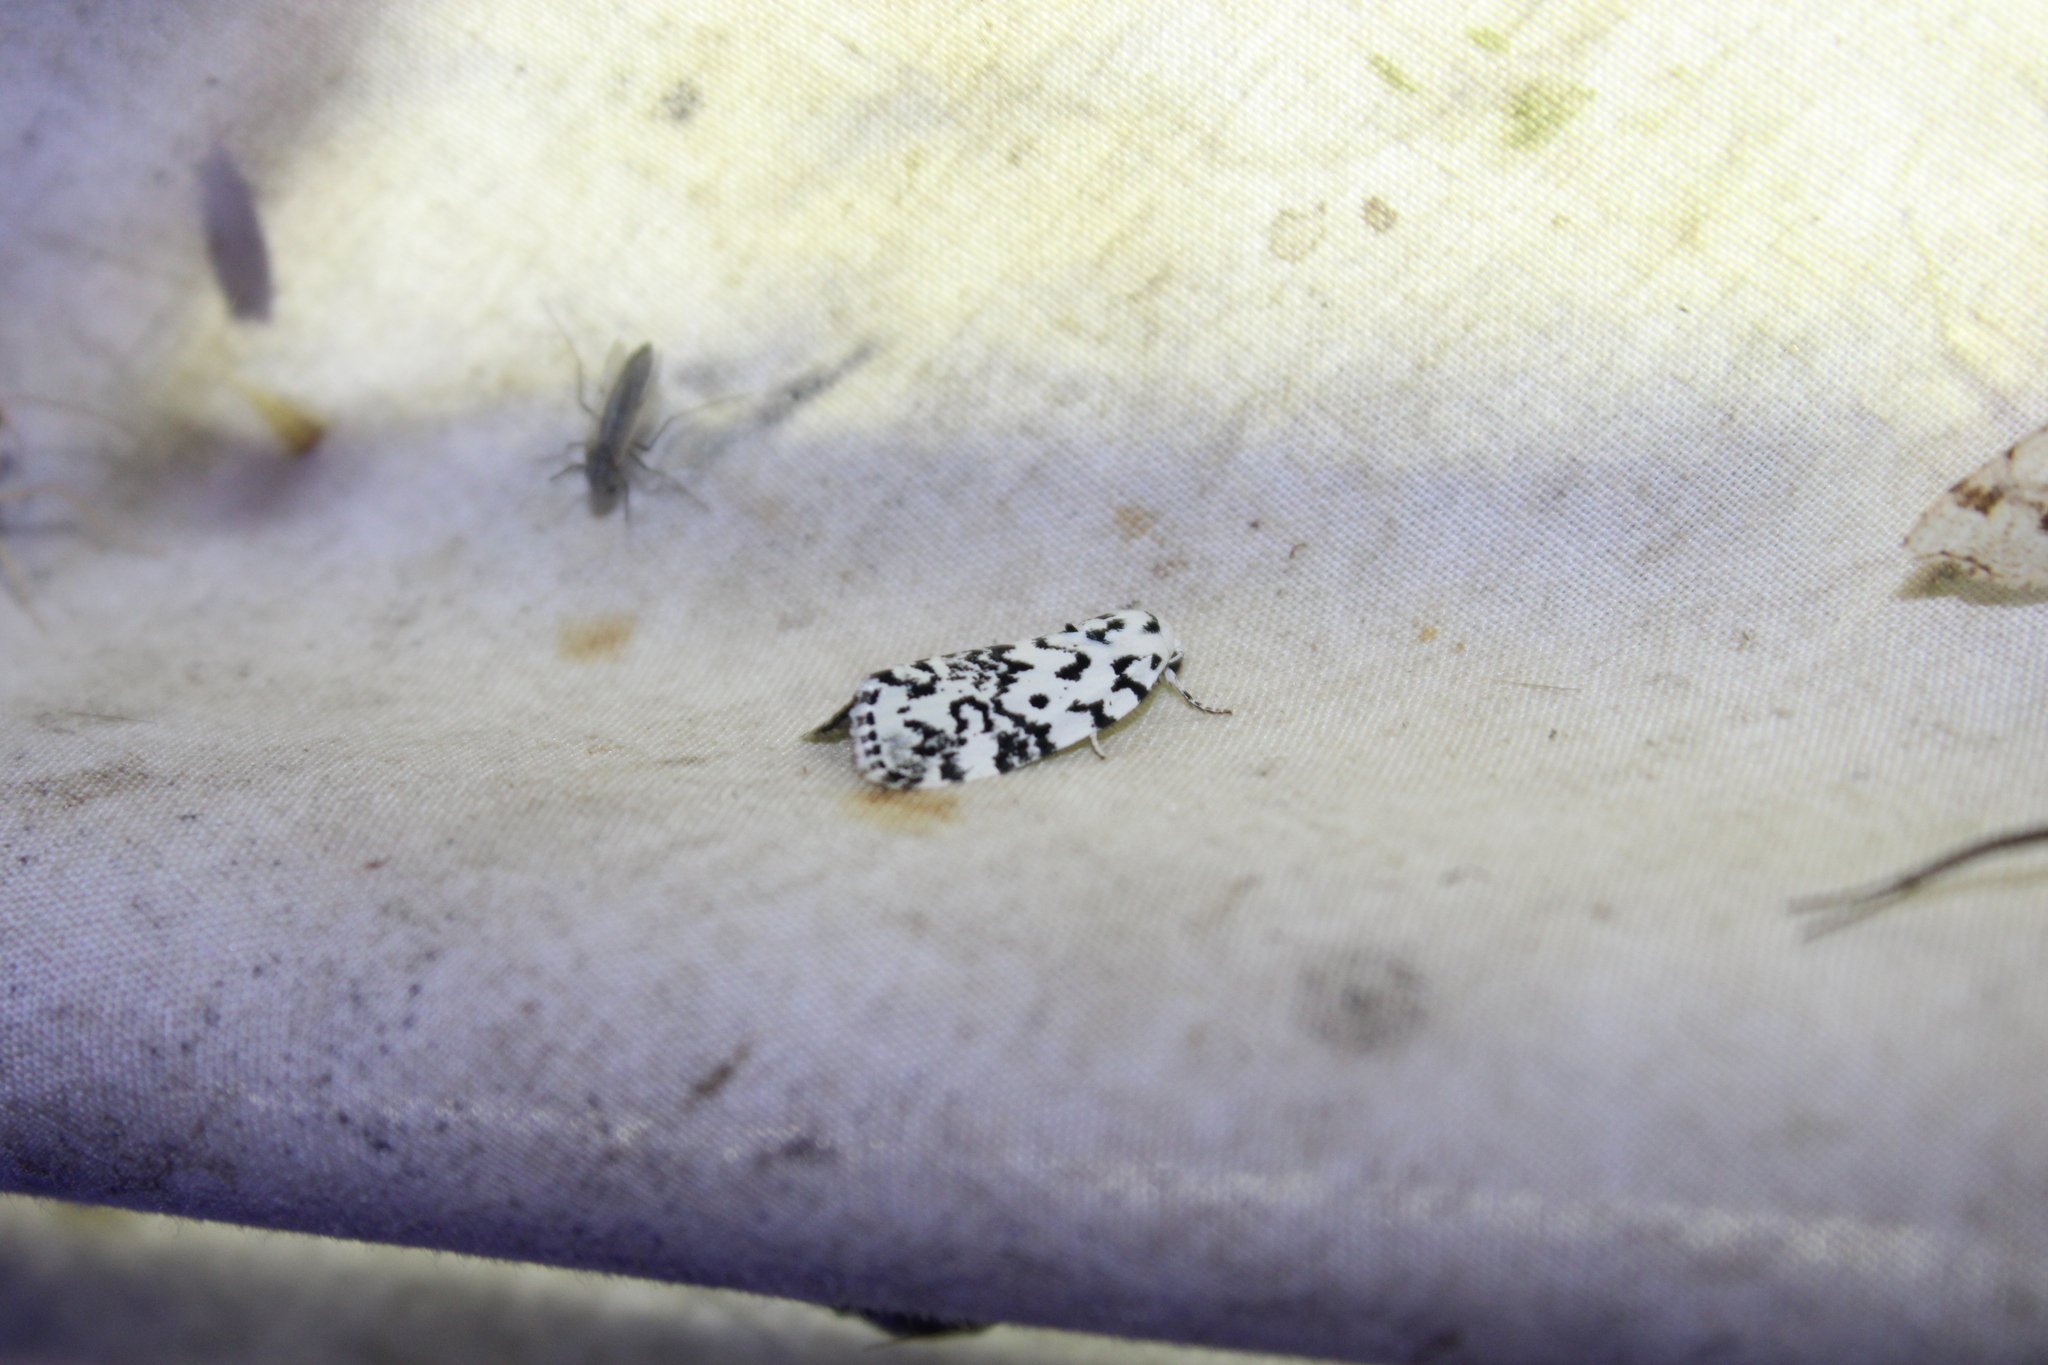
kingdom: Animalia
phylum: Arthropoda
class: Insecta
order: Lepidoptera
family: Noctuidae
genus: Polygrammate
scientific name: Polygrammate hebraeicum
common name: Hebrew moth
